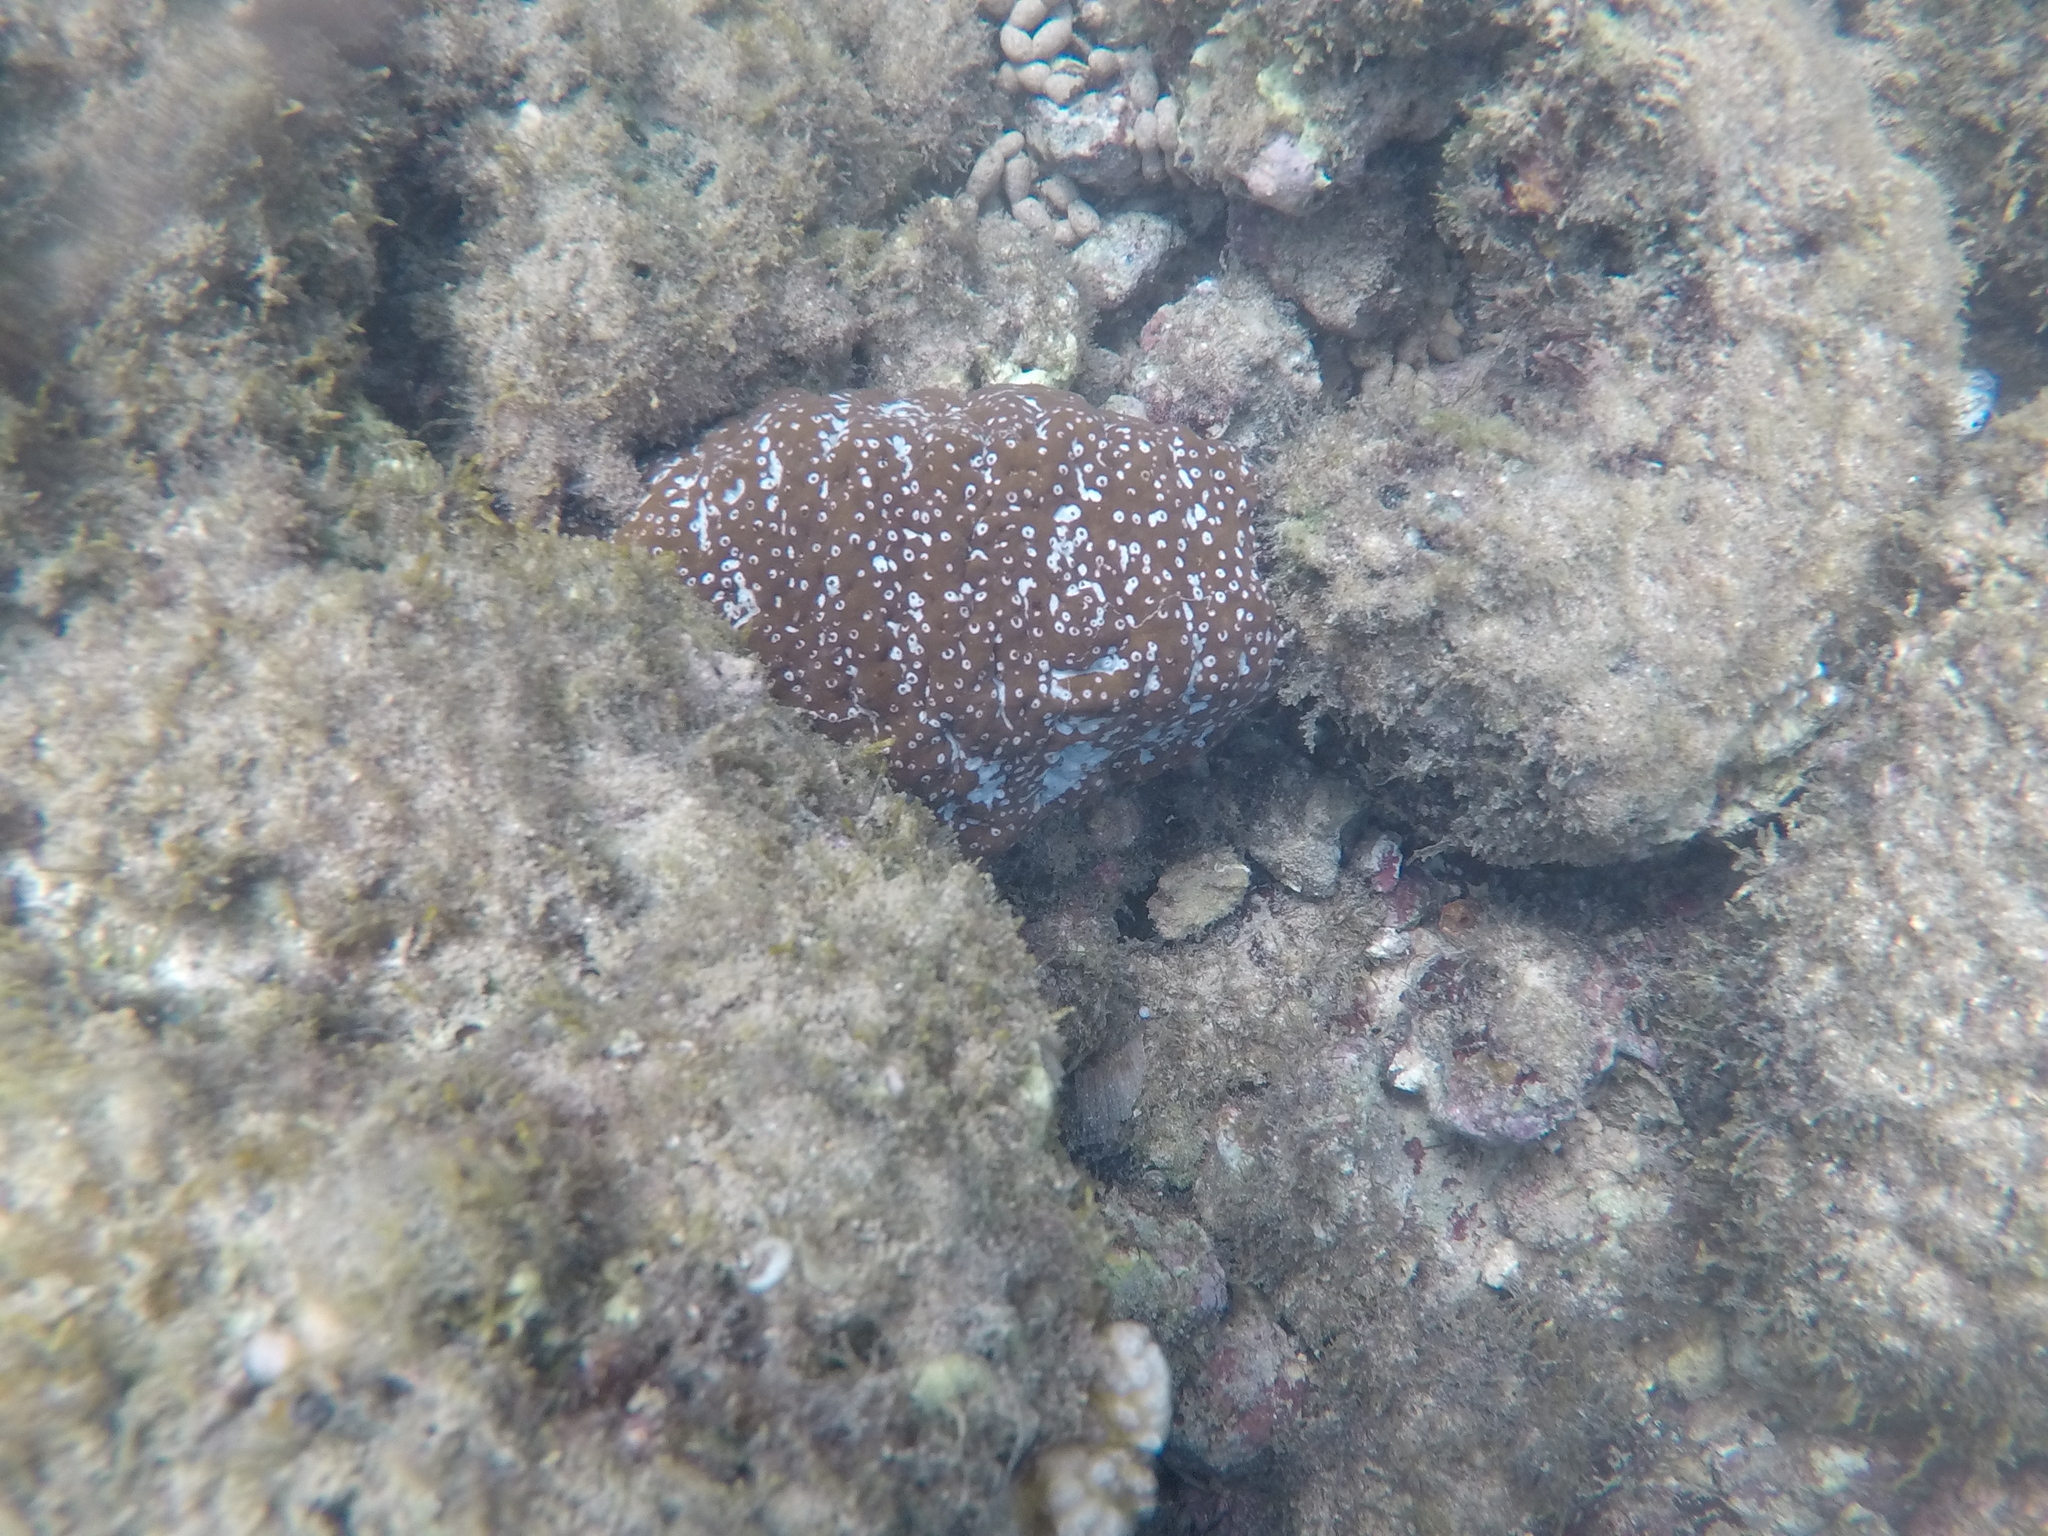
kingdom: Animalia
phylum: Echinodermata
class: Holothuroidea
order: Holothuriida
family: Holothuriidae
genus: Actinopyga
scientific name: Actinopyga varians
